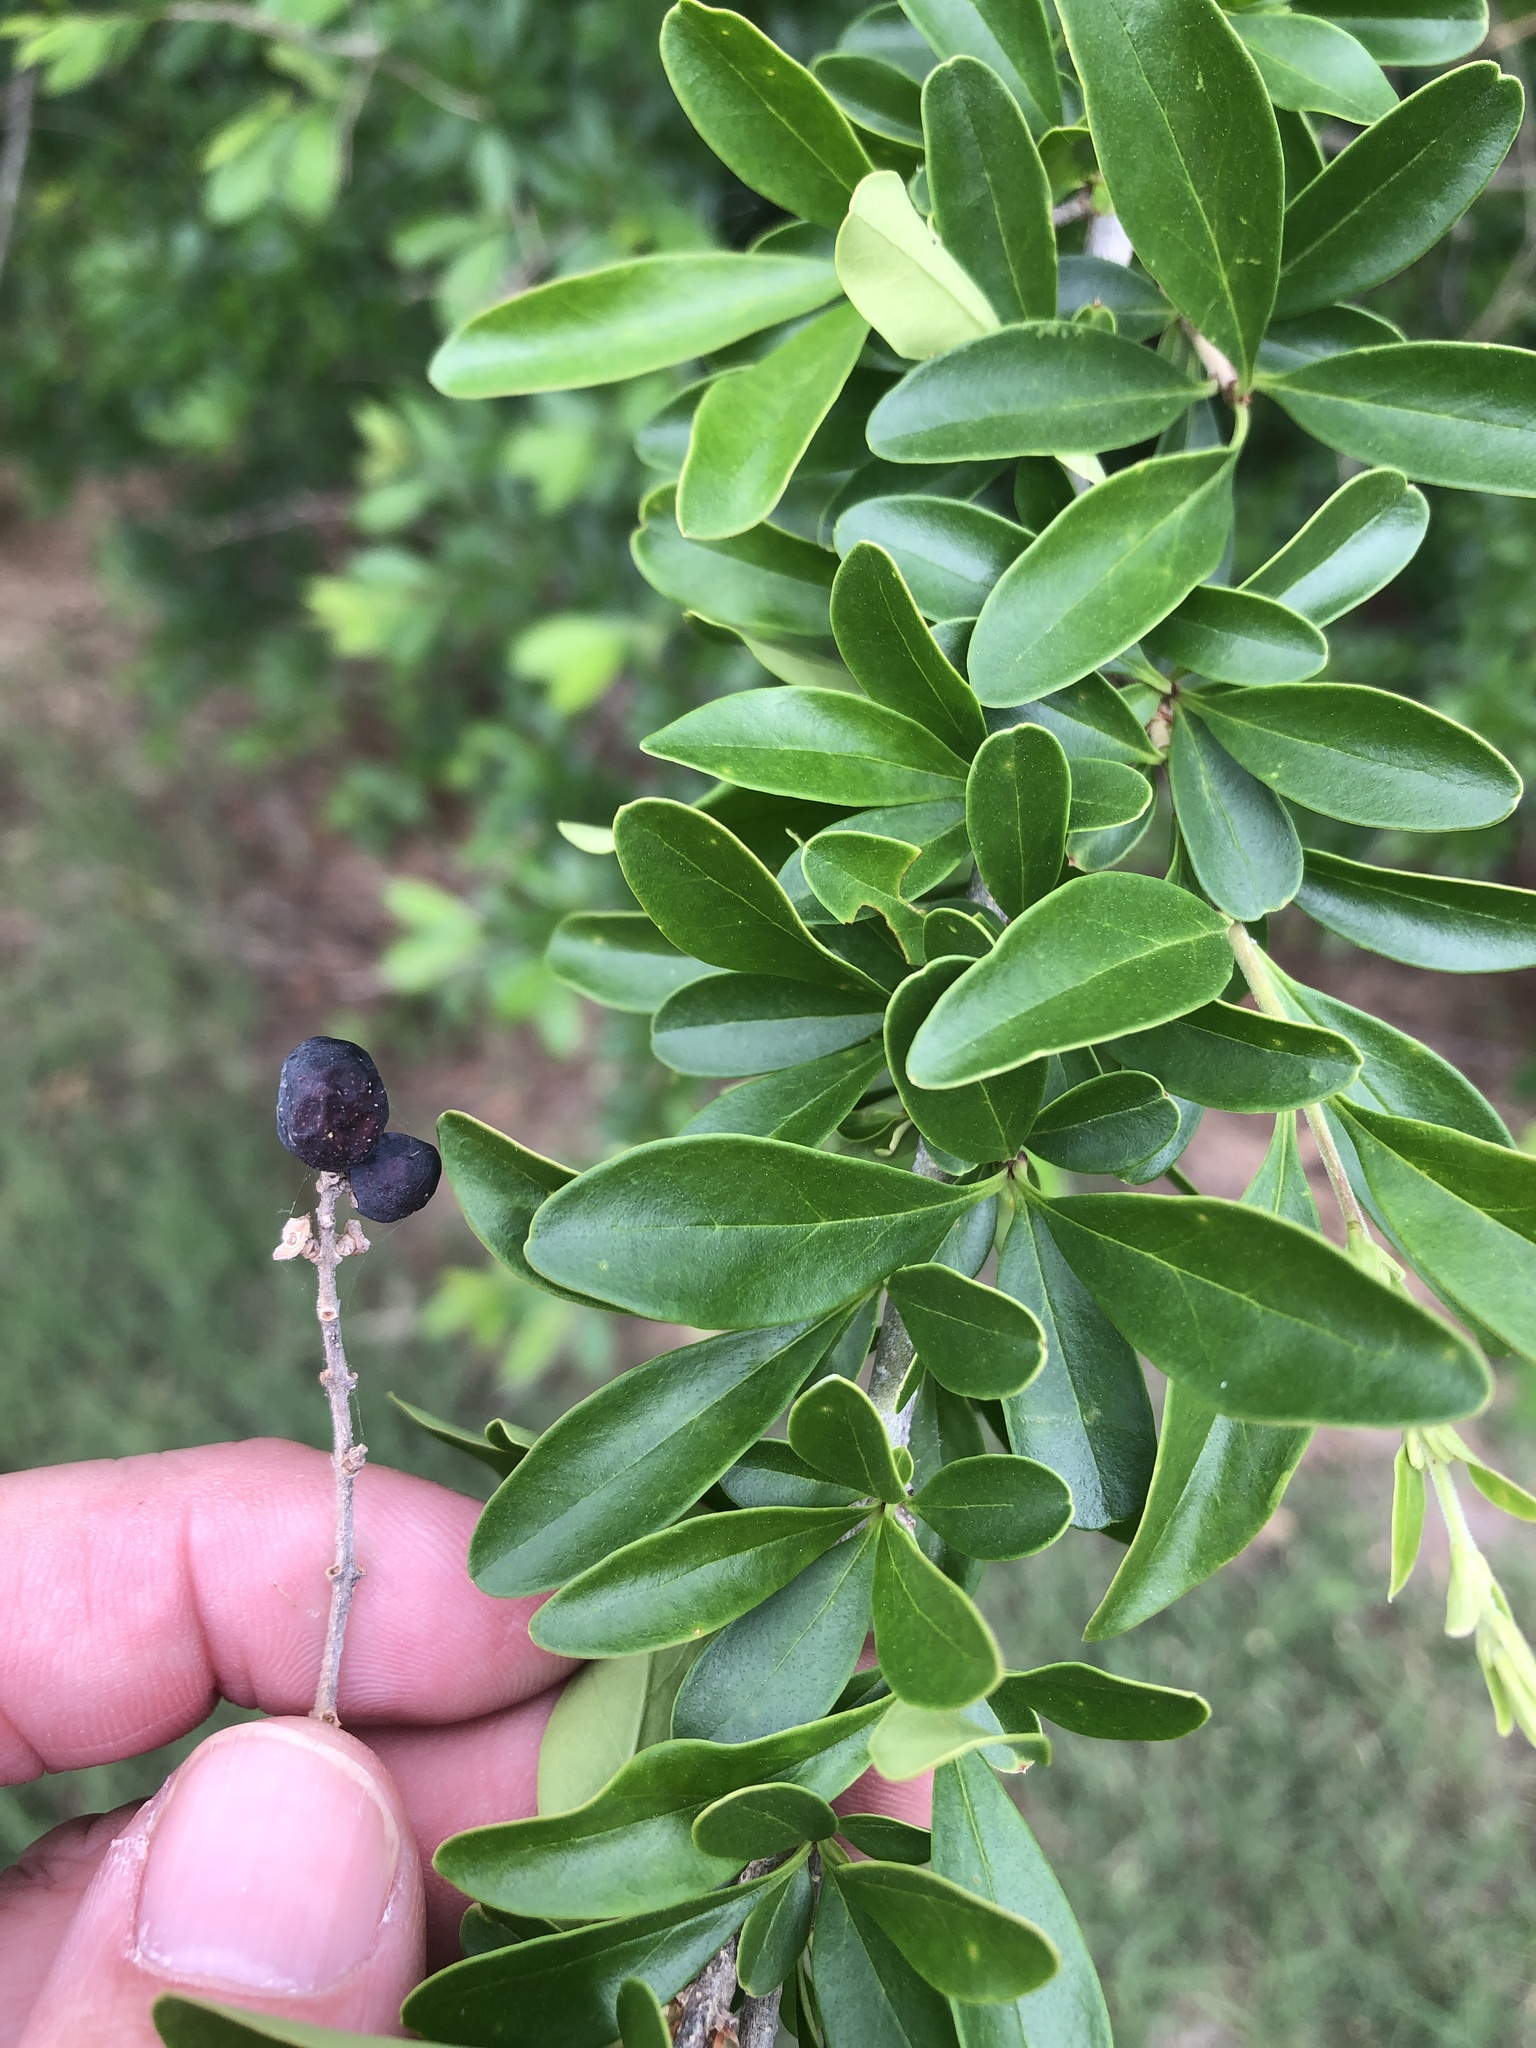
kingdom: Plantae
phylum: Tracheophyta
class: Magnoliopsida
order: Lamiales
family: Oleaceae
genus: Ligustrum
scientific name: Ligustrum quihoui
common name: Waxyleaf privet
